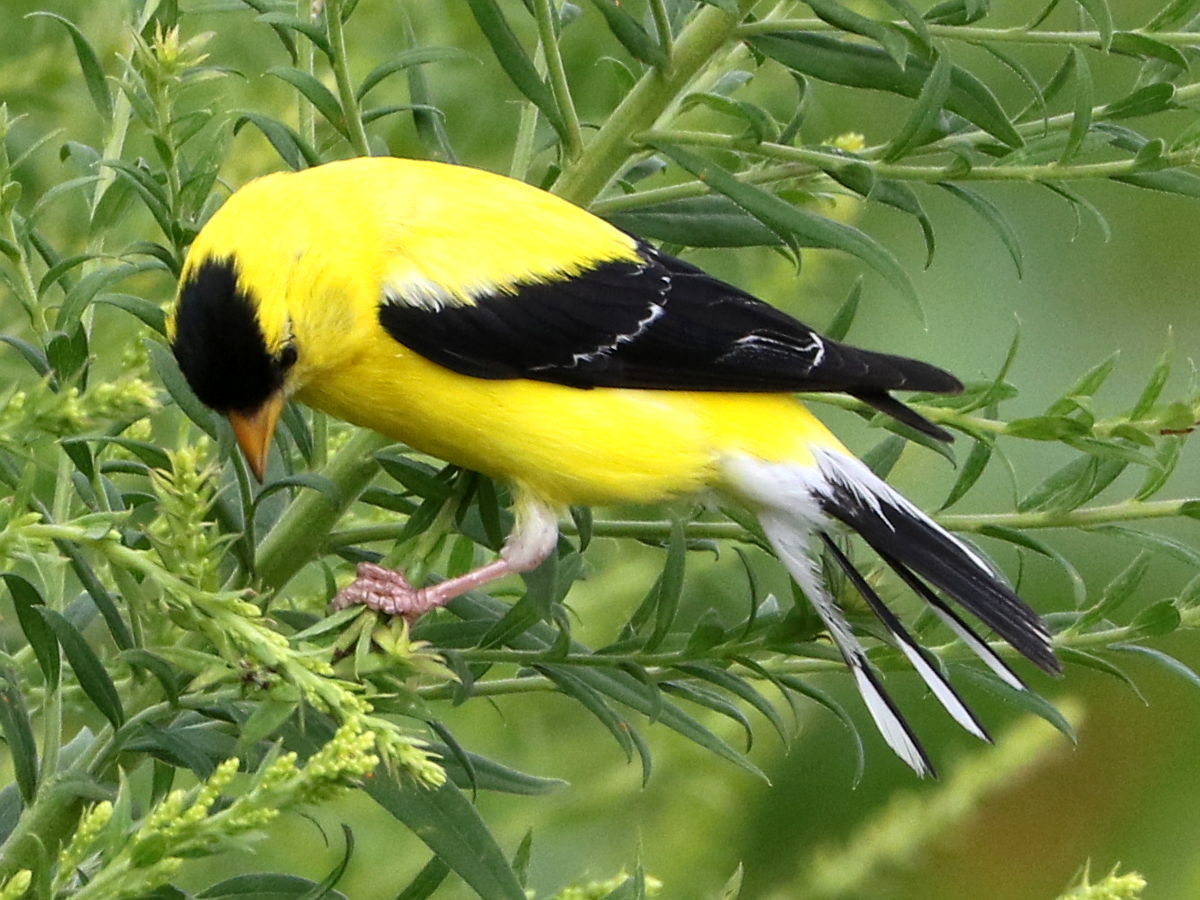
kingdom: Animalia
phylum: Chordata
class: Aves
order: Passeriformes
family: Fringillidae
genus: Spinus
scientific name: Spinus tristis
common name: American goldfinch
